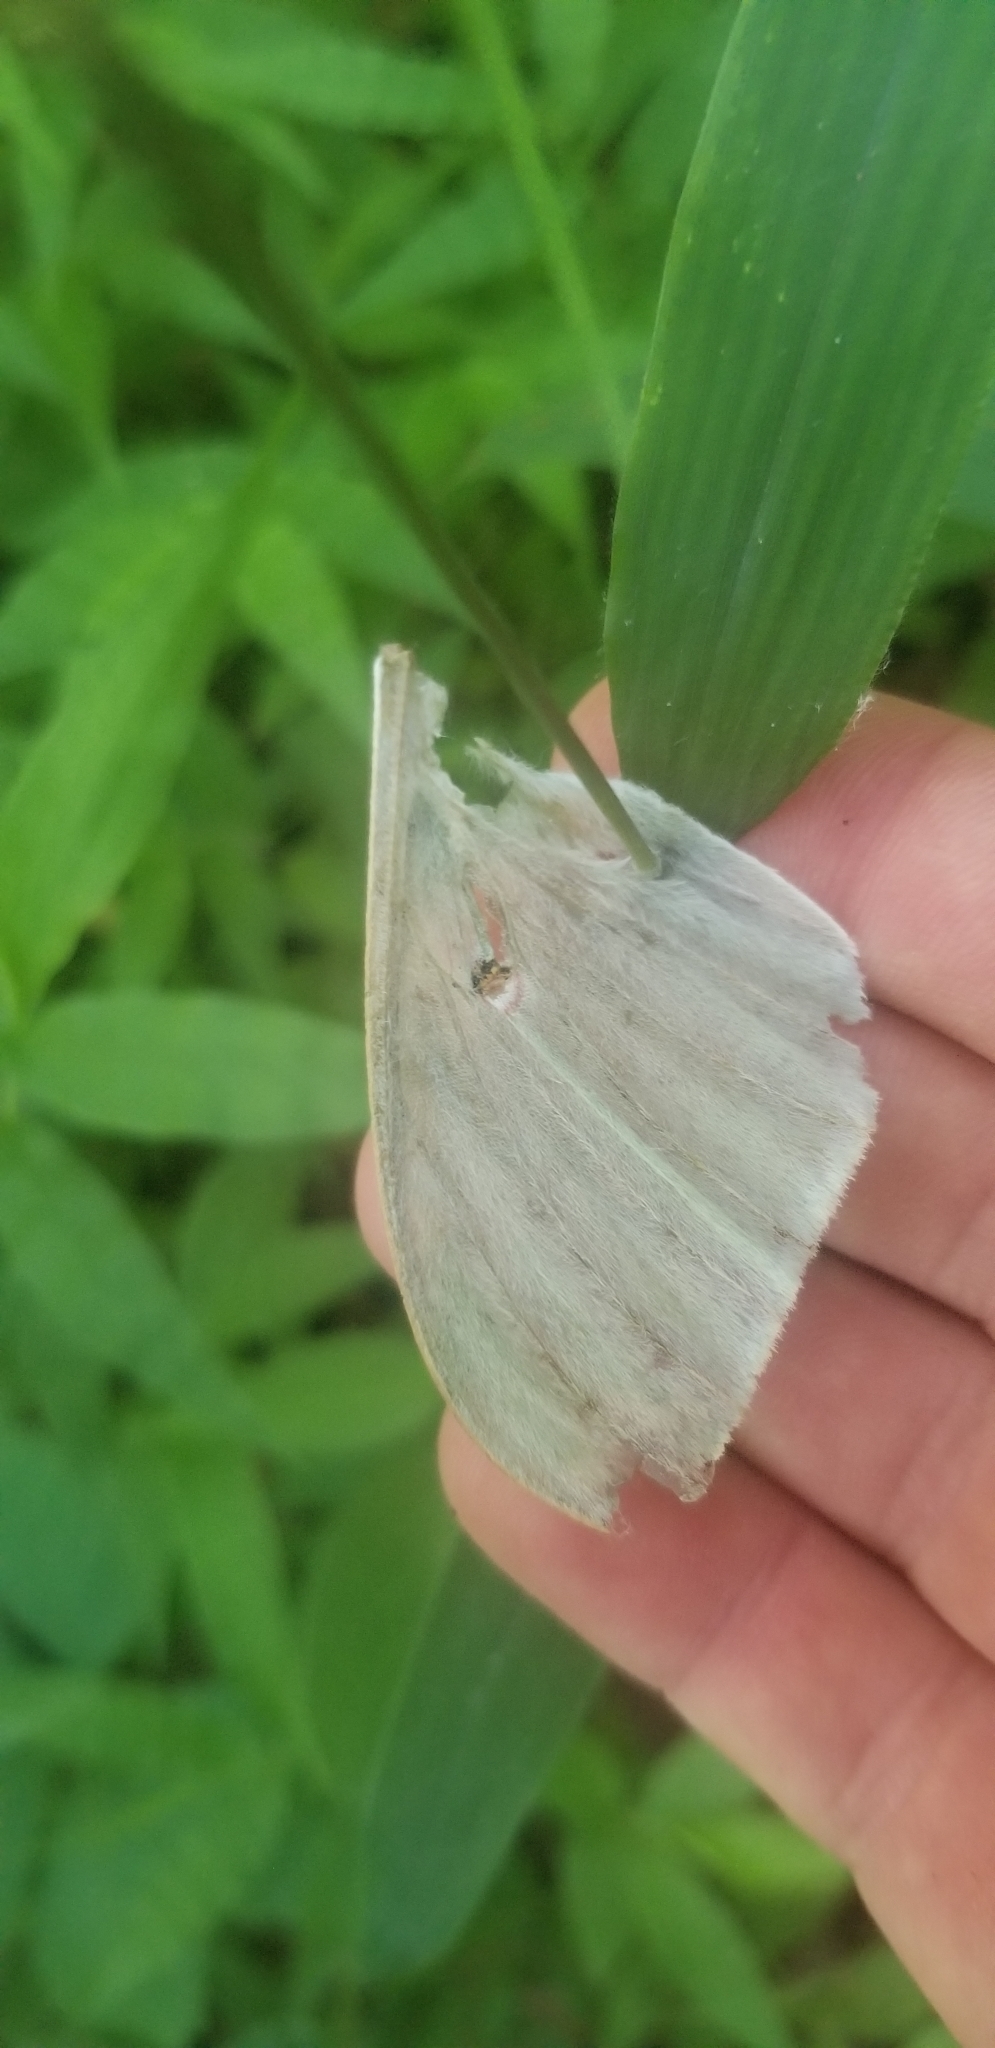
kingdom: Animalia
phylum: Arthropoda
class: Insecta
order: Lepidoptera
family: Saturniidae
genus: Actias
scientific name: Actias luna
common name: Luna moth
